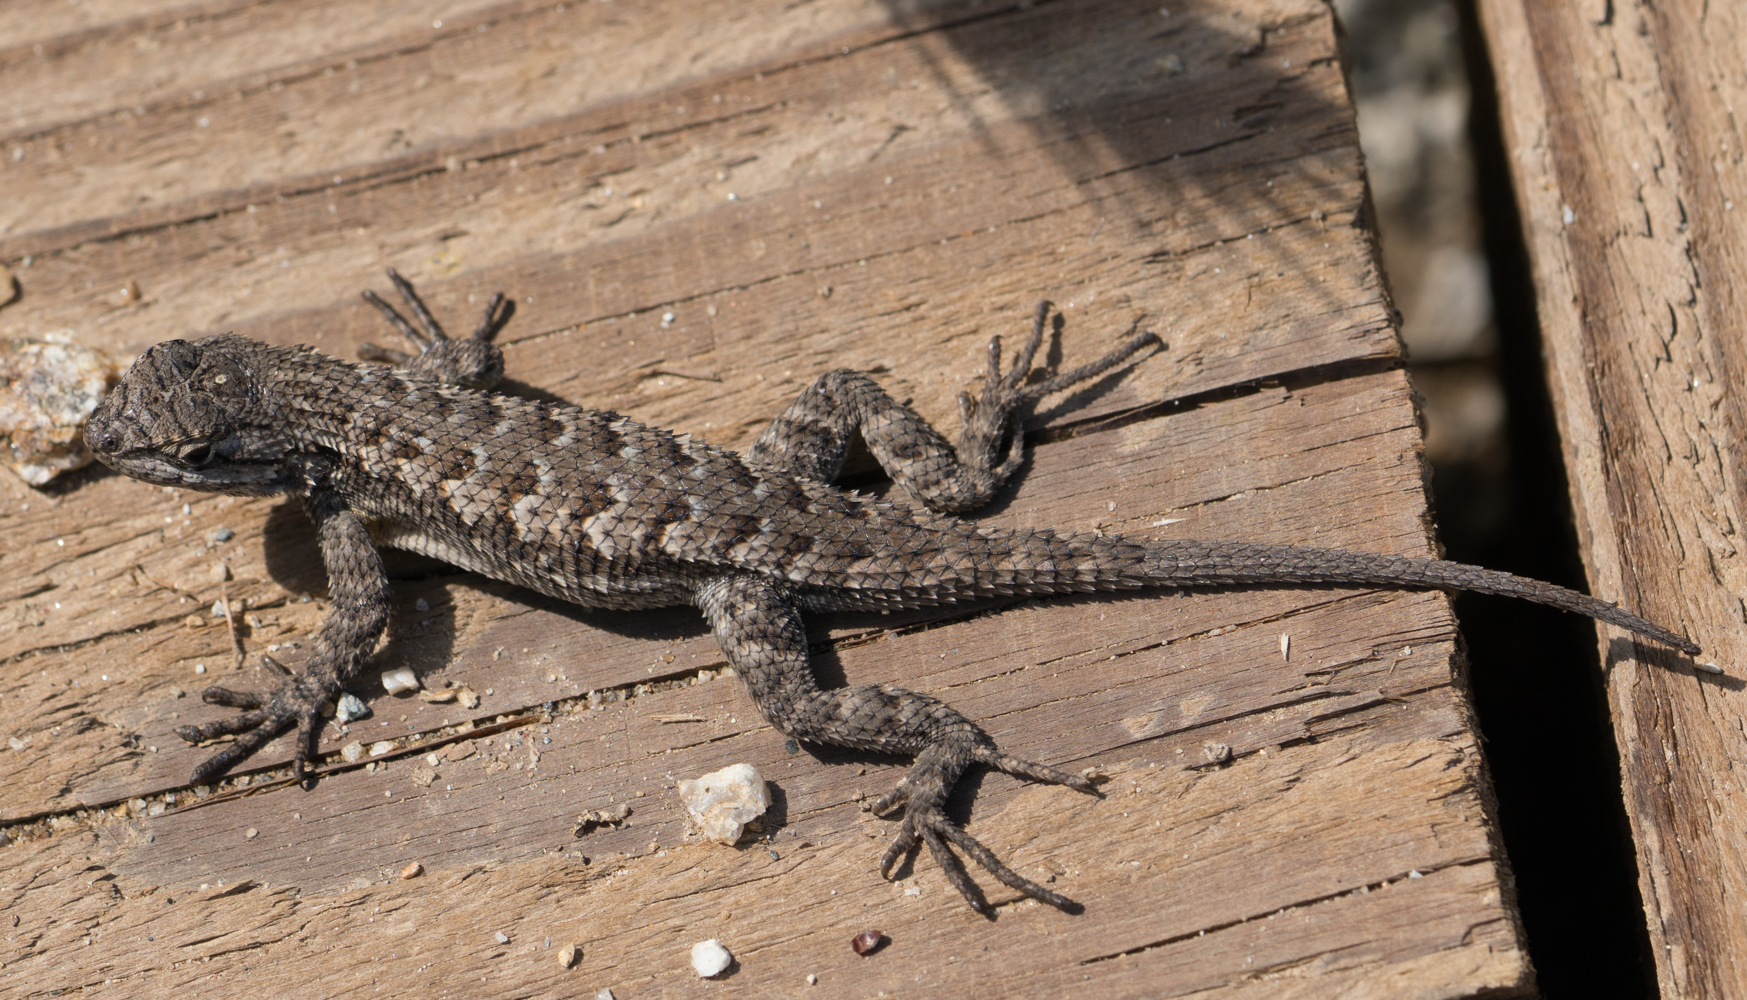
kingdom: Animalia
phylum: Chordata
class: Squamata
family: Phrynosomatidae
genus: Sceloporus
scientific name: Sceloporus occidentalis
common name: Western fence lizard
